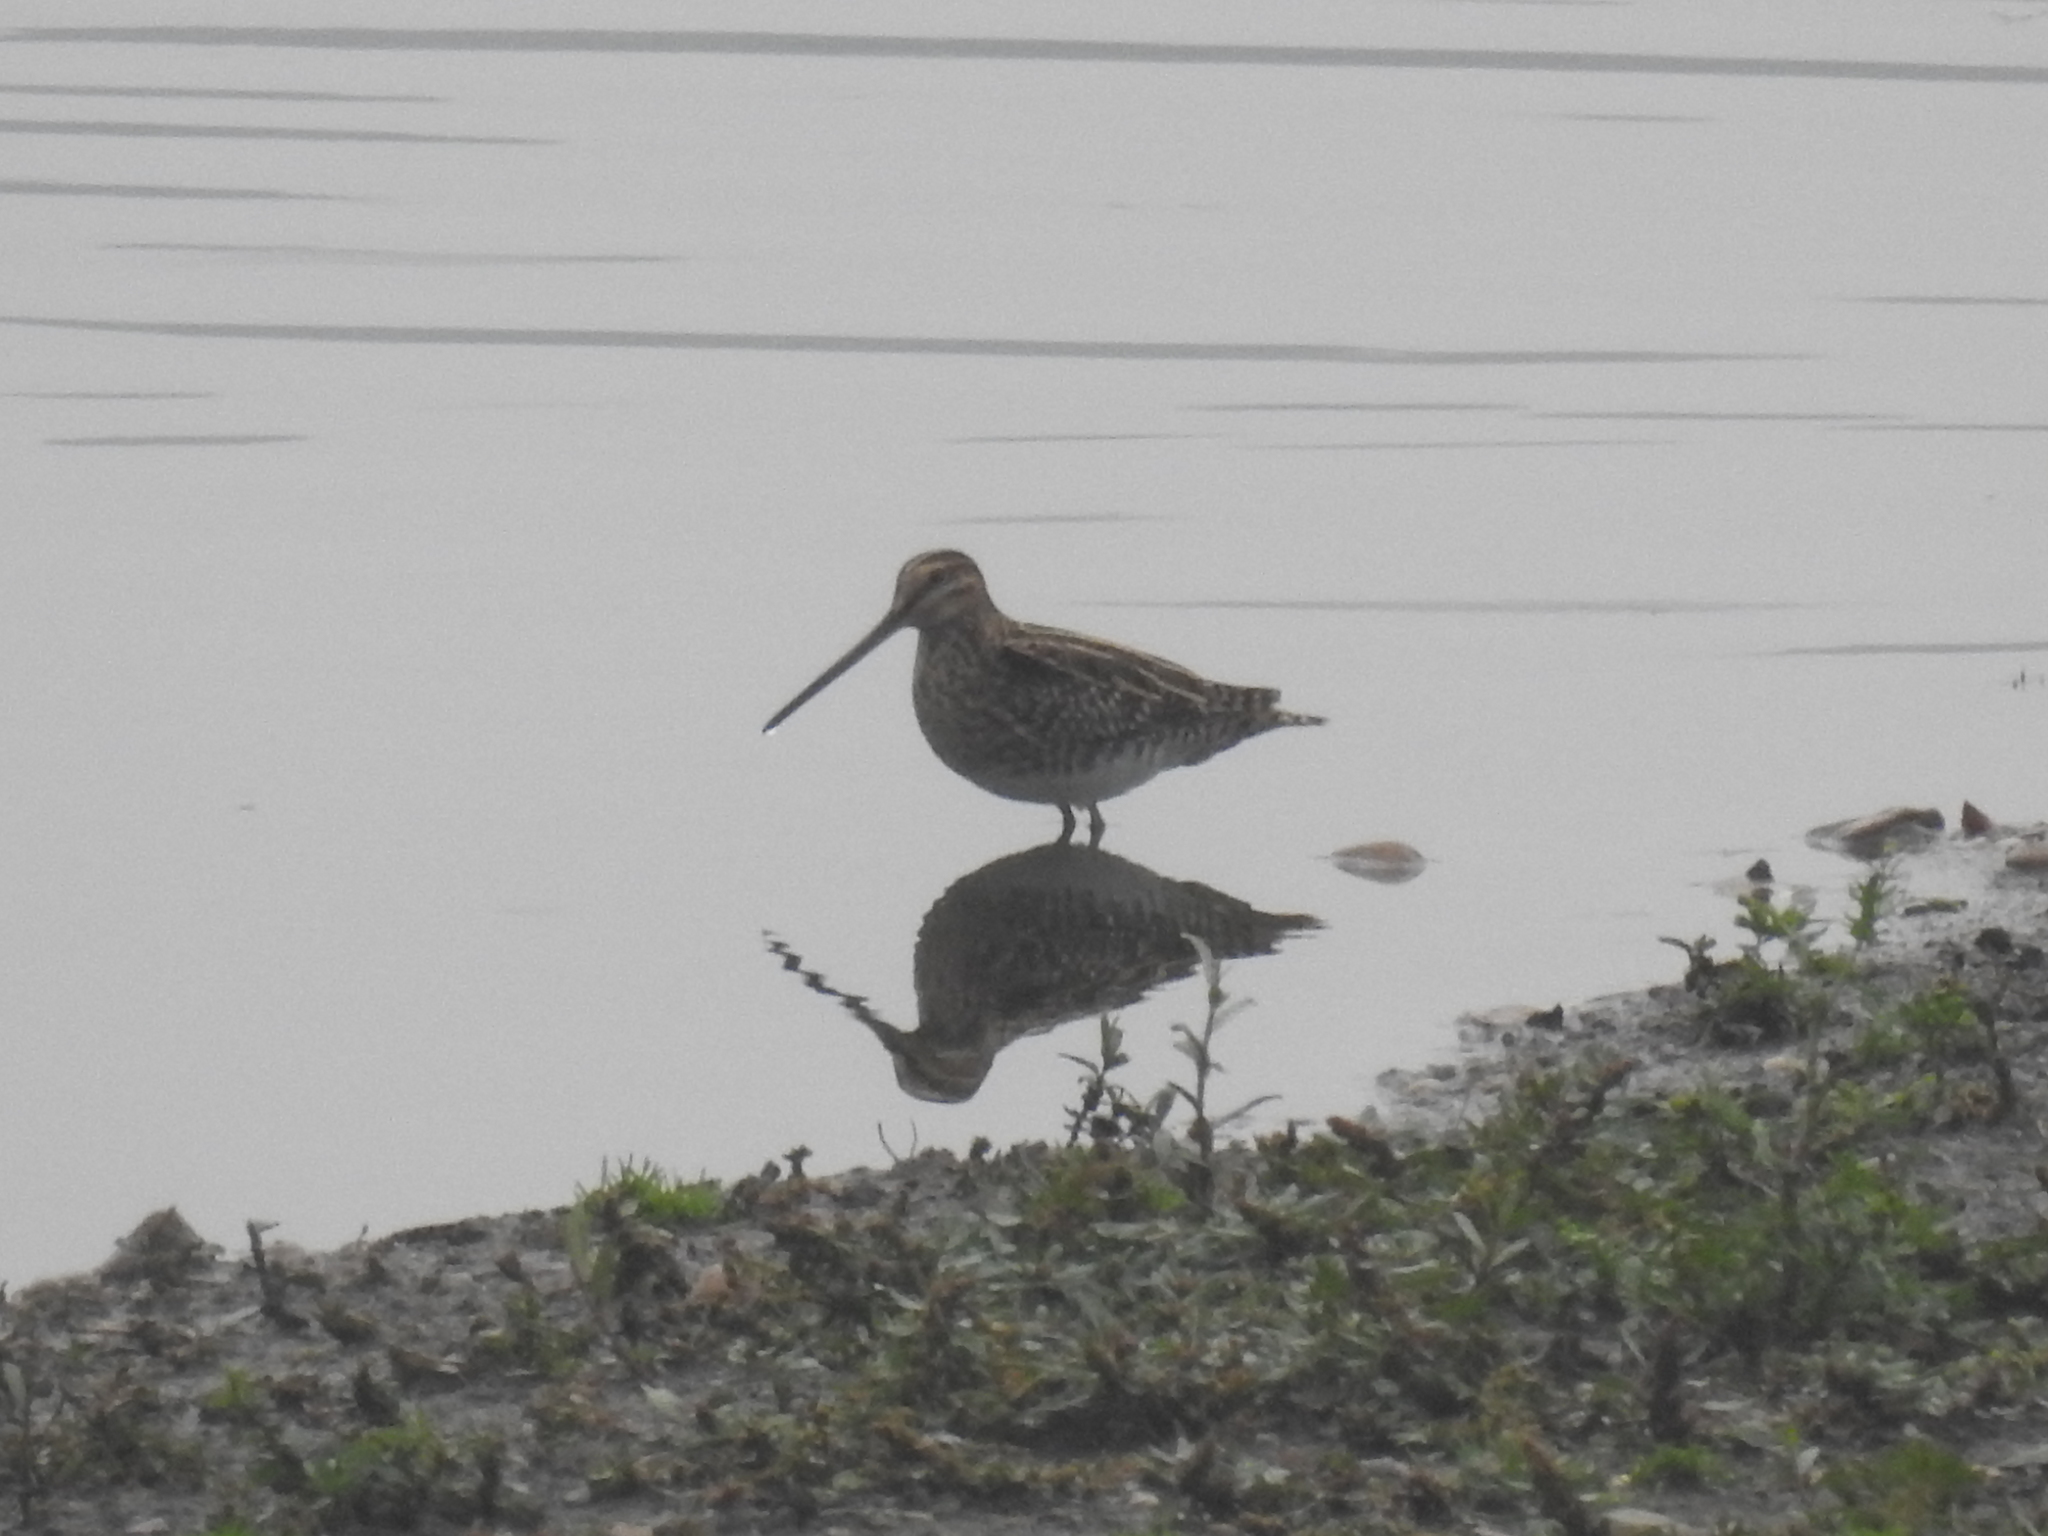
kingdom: Animalia
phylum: Chordata
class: Aves
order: Charadriiformes
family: Scolopacidae
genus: Gallinago
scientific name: Gallinago gallinago
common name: Common snipe
